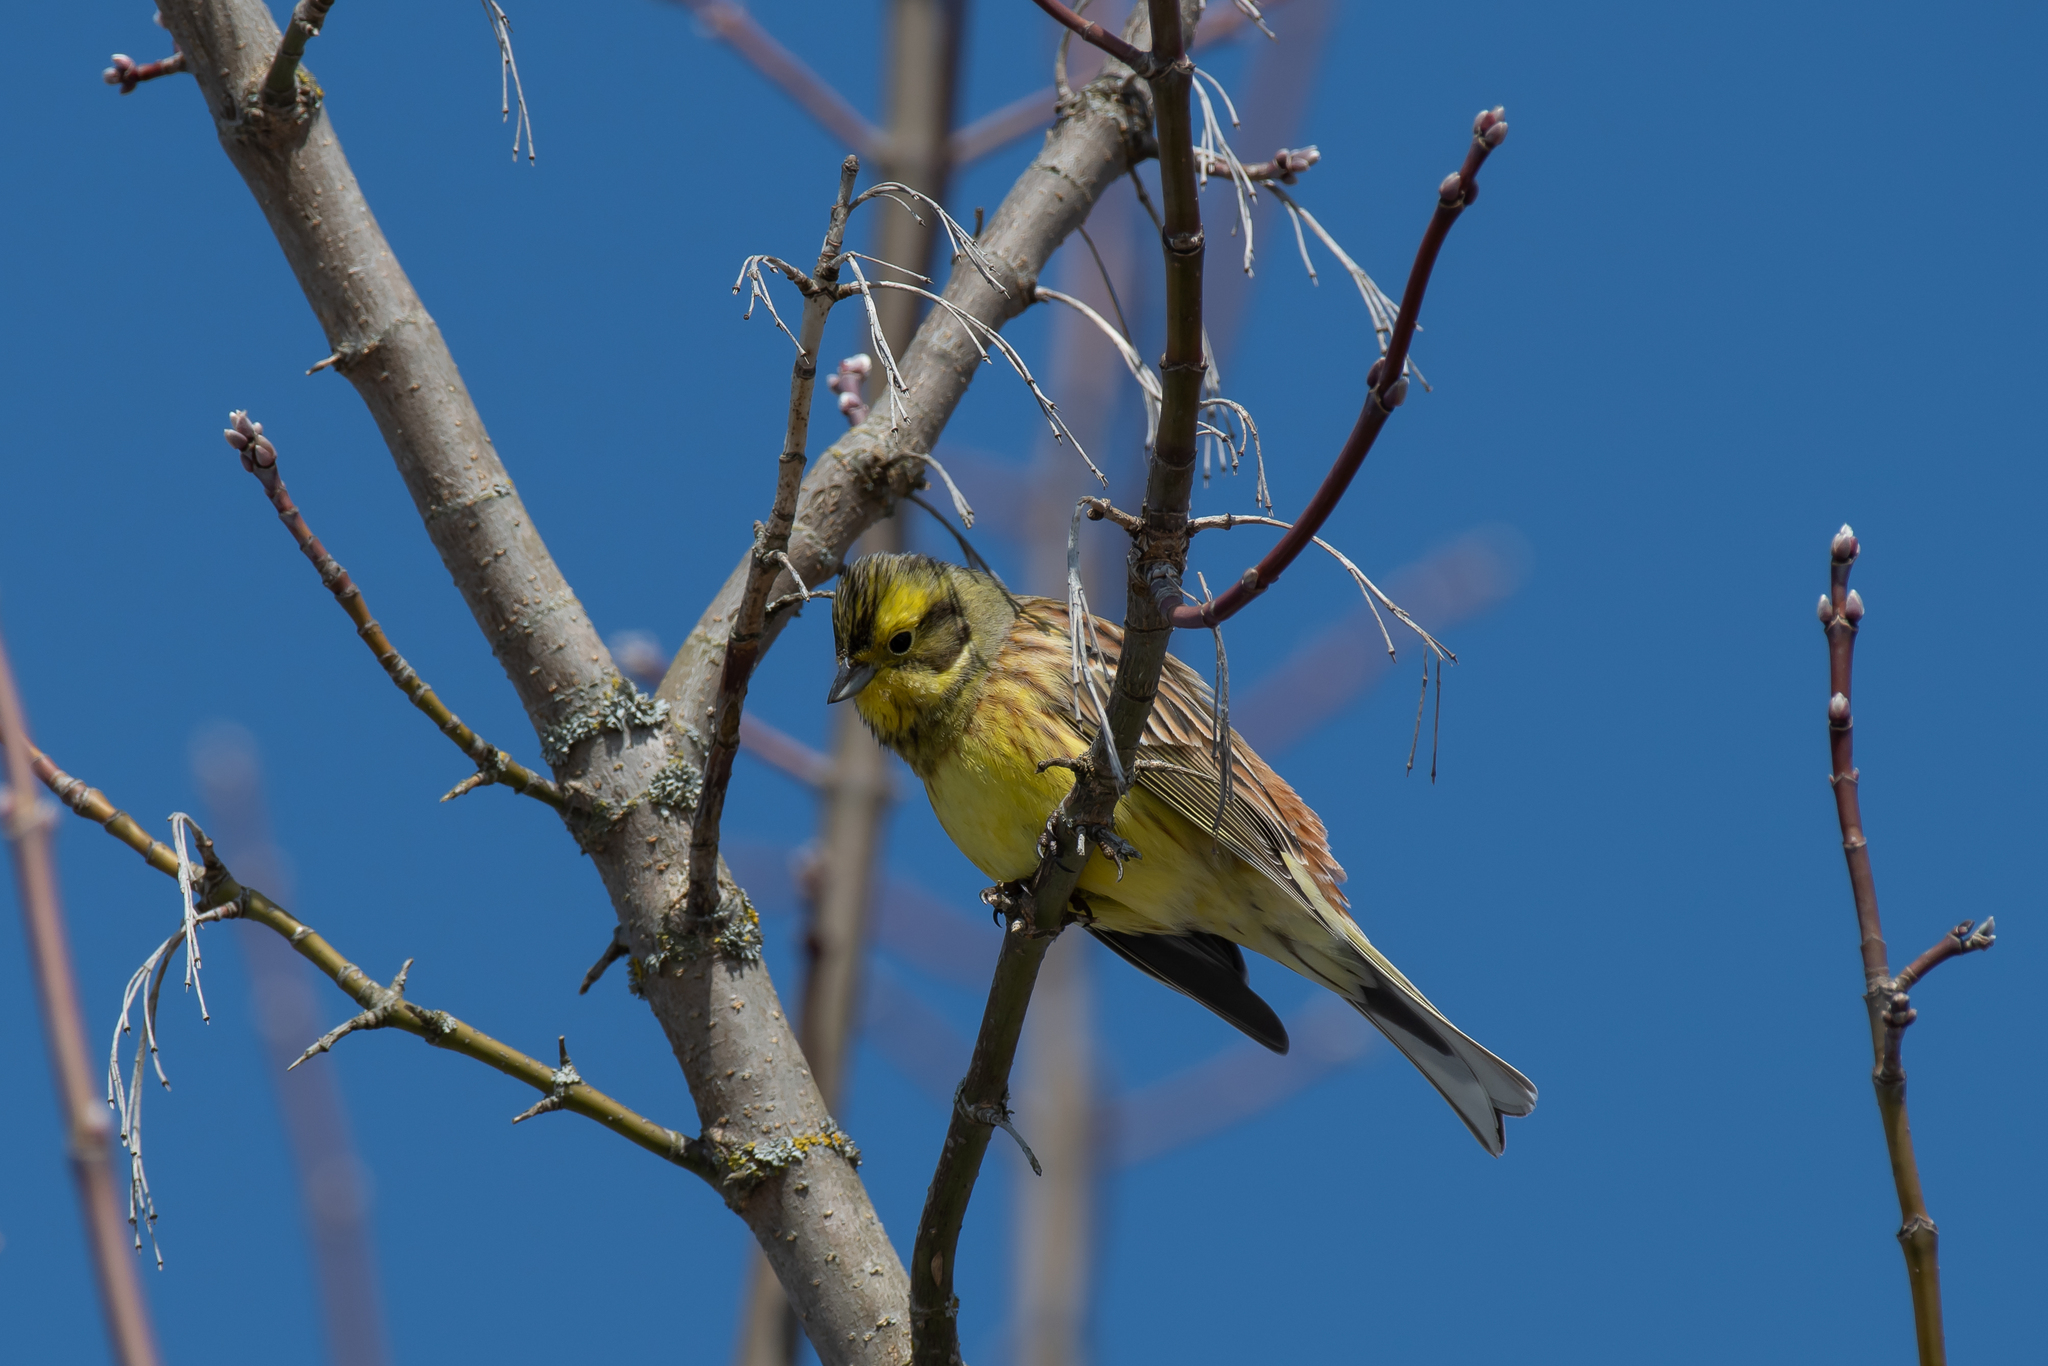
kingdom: Animalia
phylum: Chordata
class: Aves
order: Passeriformes
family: Emberizidae
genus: Emberiza
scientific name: Emberiza citrinella
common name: Yellowhammer
